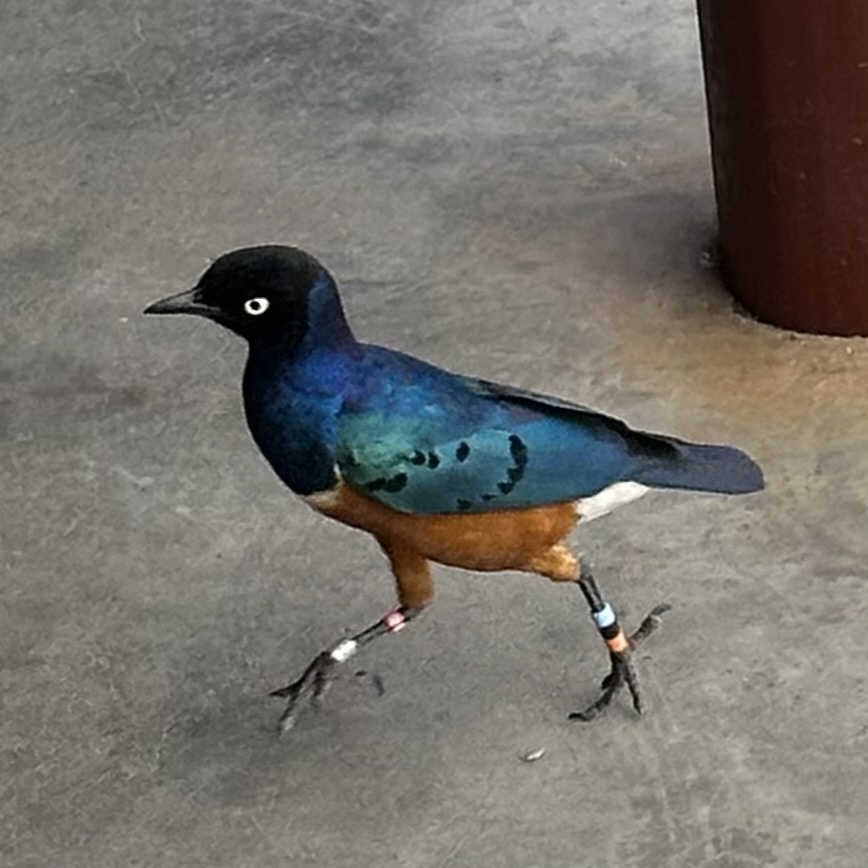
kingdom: Animalia
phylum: Chordata
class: Aves
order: Passeriformes
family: Sturnidae
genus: Lamprotornis
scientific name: Lamprotornis superbus
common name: Superb starling
